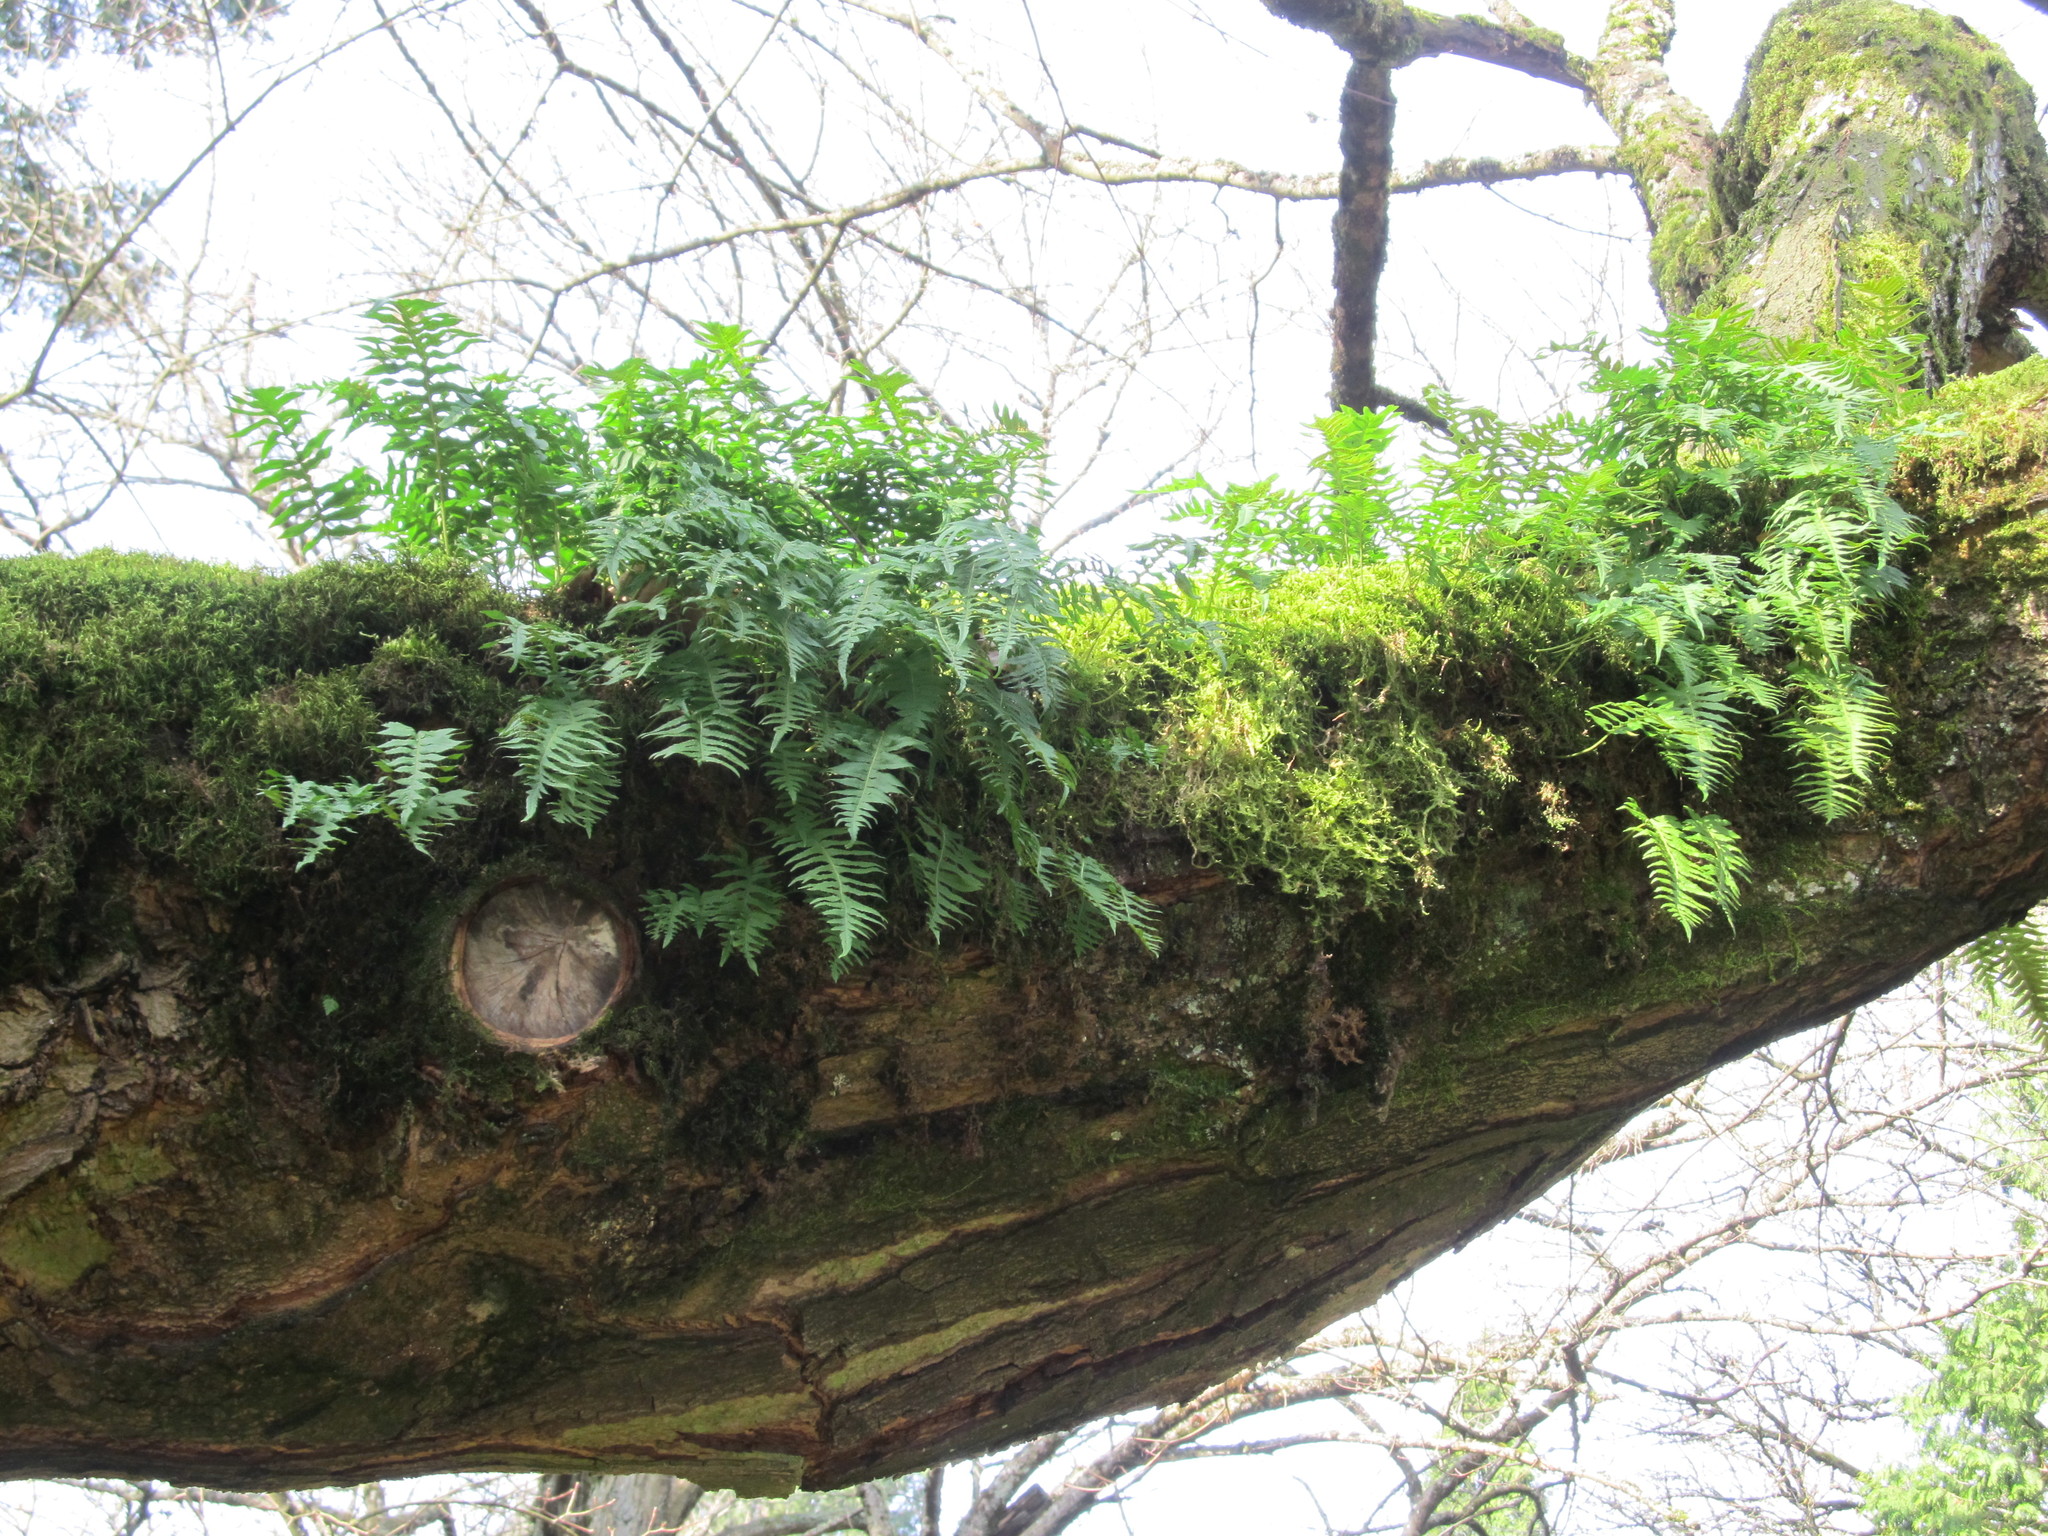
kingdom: Plantae
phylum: Tracheophyta
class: Polypodiopsida
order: Polypodiales
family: Polypodiaceae
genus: Polypodium
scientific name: Polypodium glycyrrhiza
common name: Licorice fern
